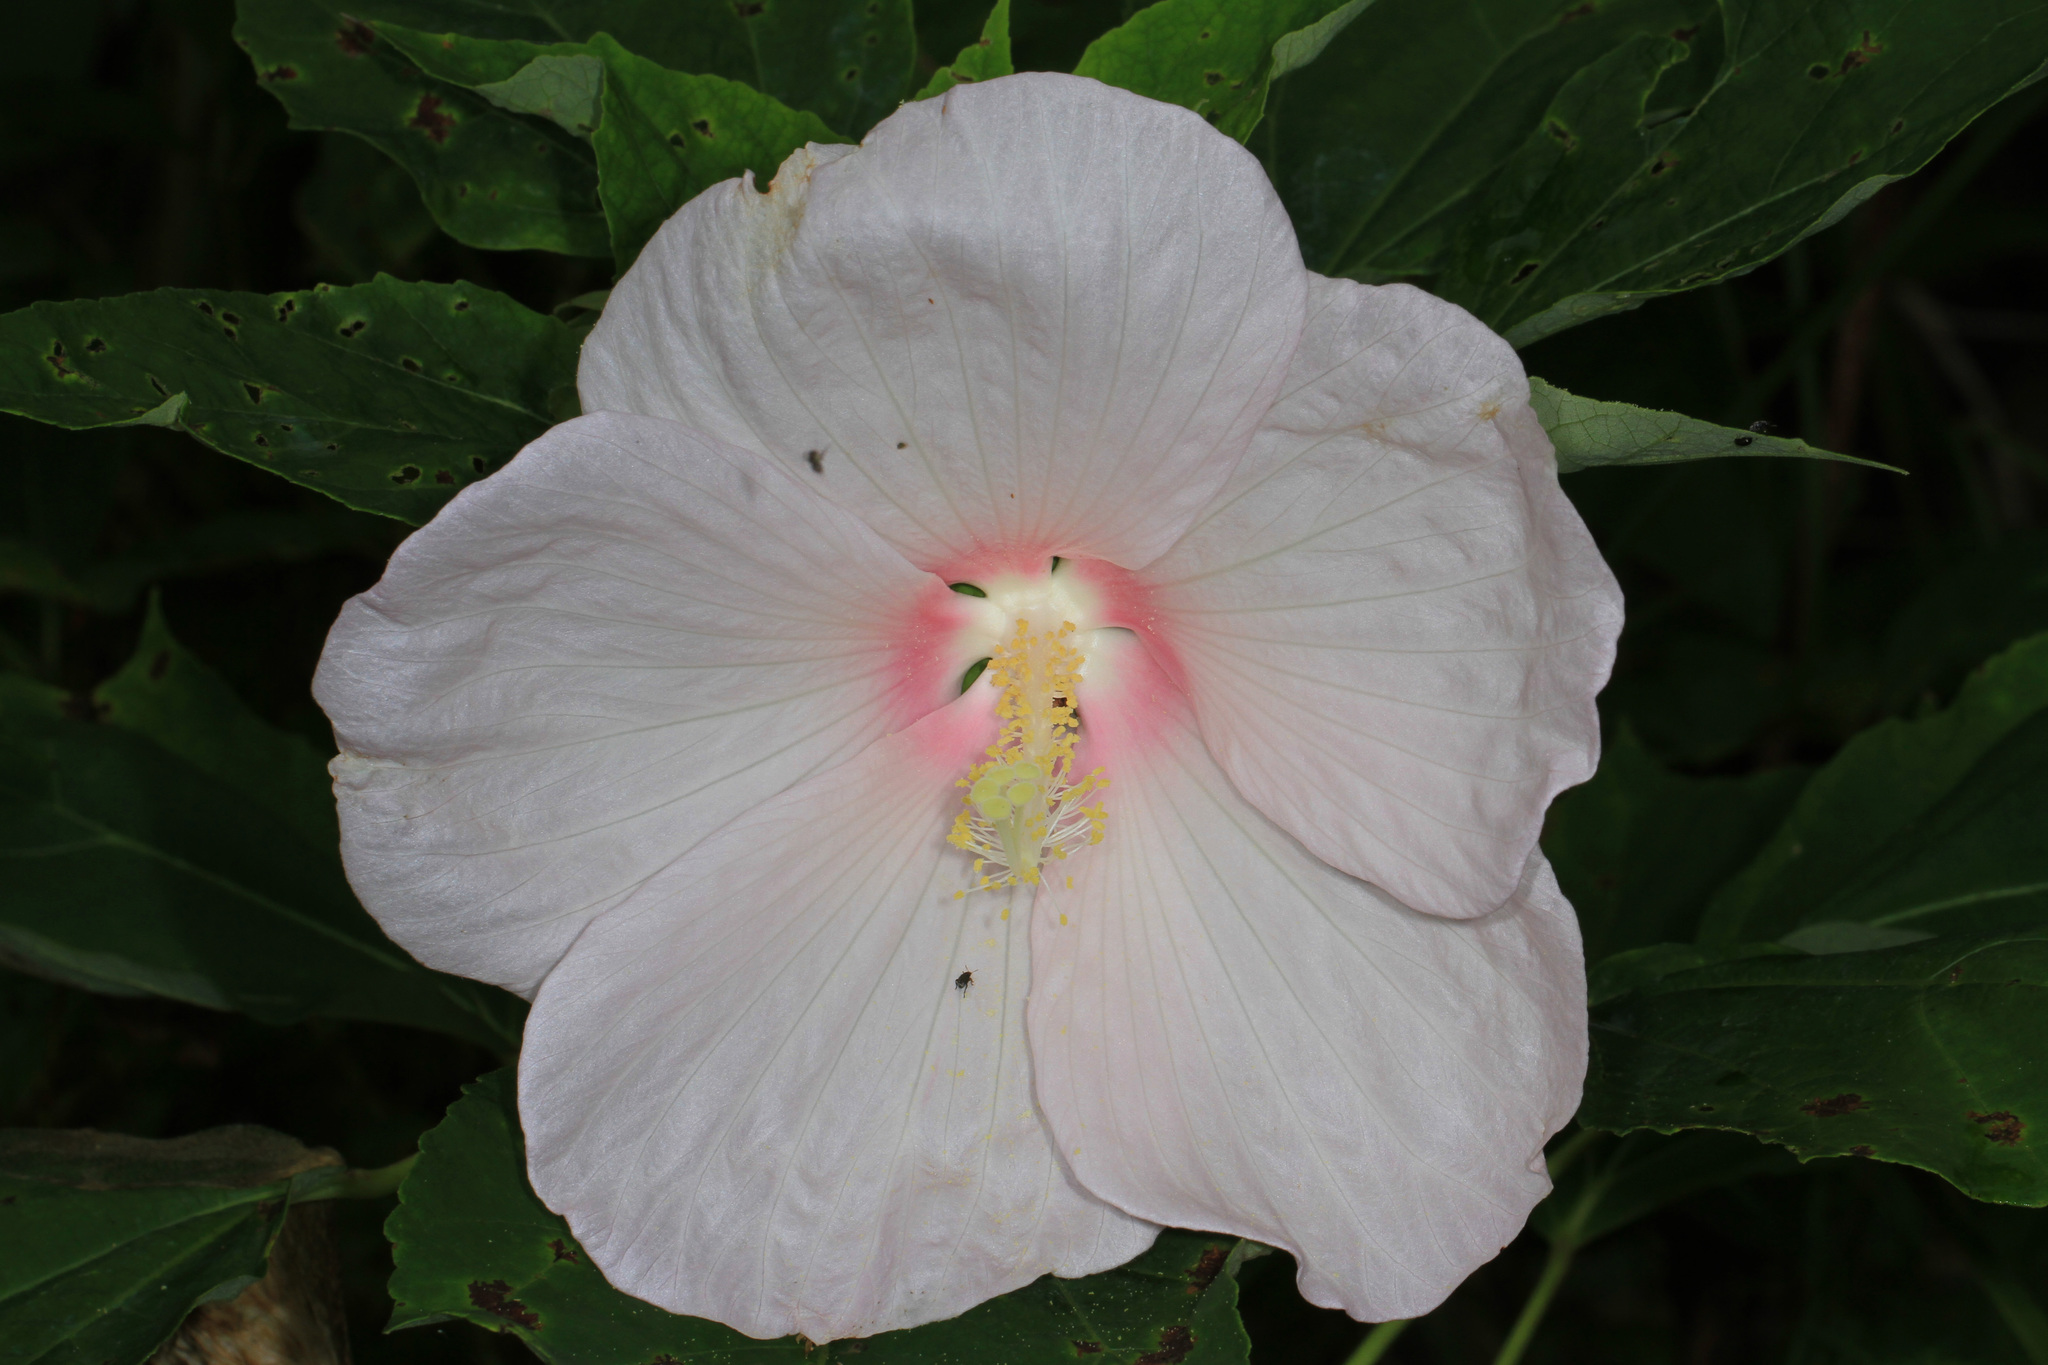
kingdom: Plantae
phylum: Tracheophyta
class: Magnoliopsida
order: Malvales
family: Malvaceae
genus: Hibiscus
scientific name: Hibiscus moscheutos
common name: Common rose-mallow
